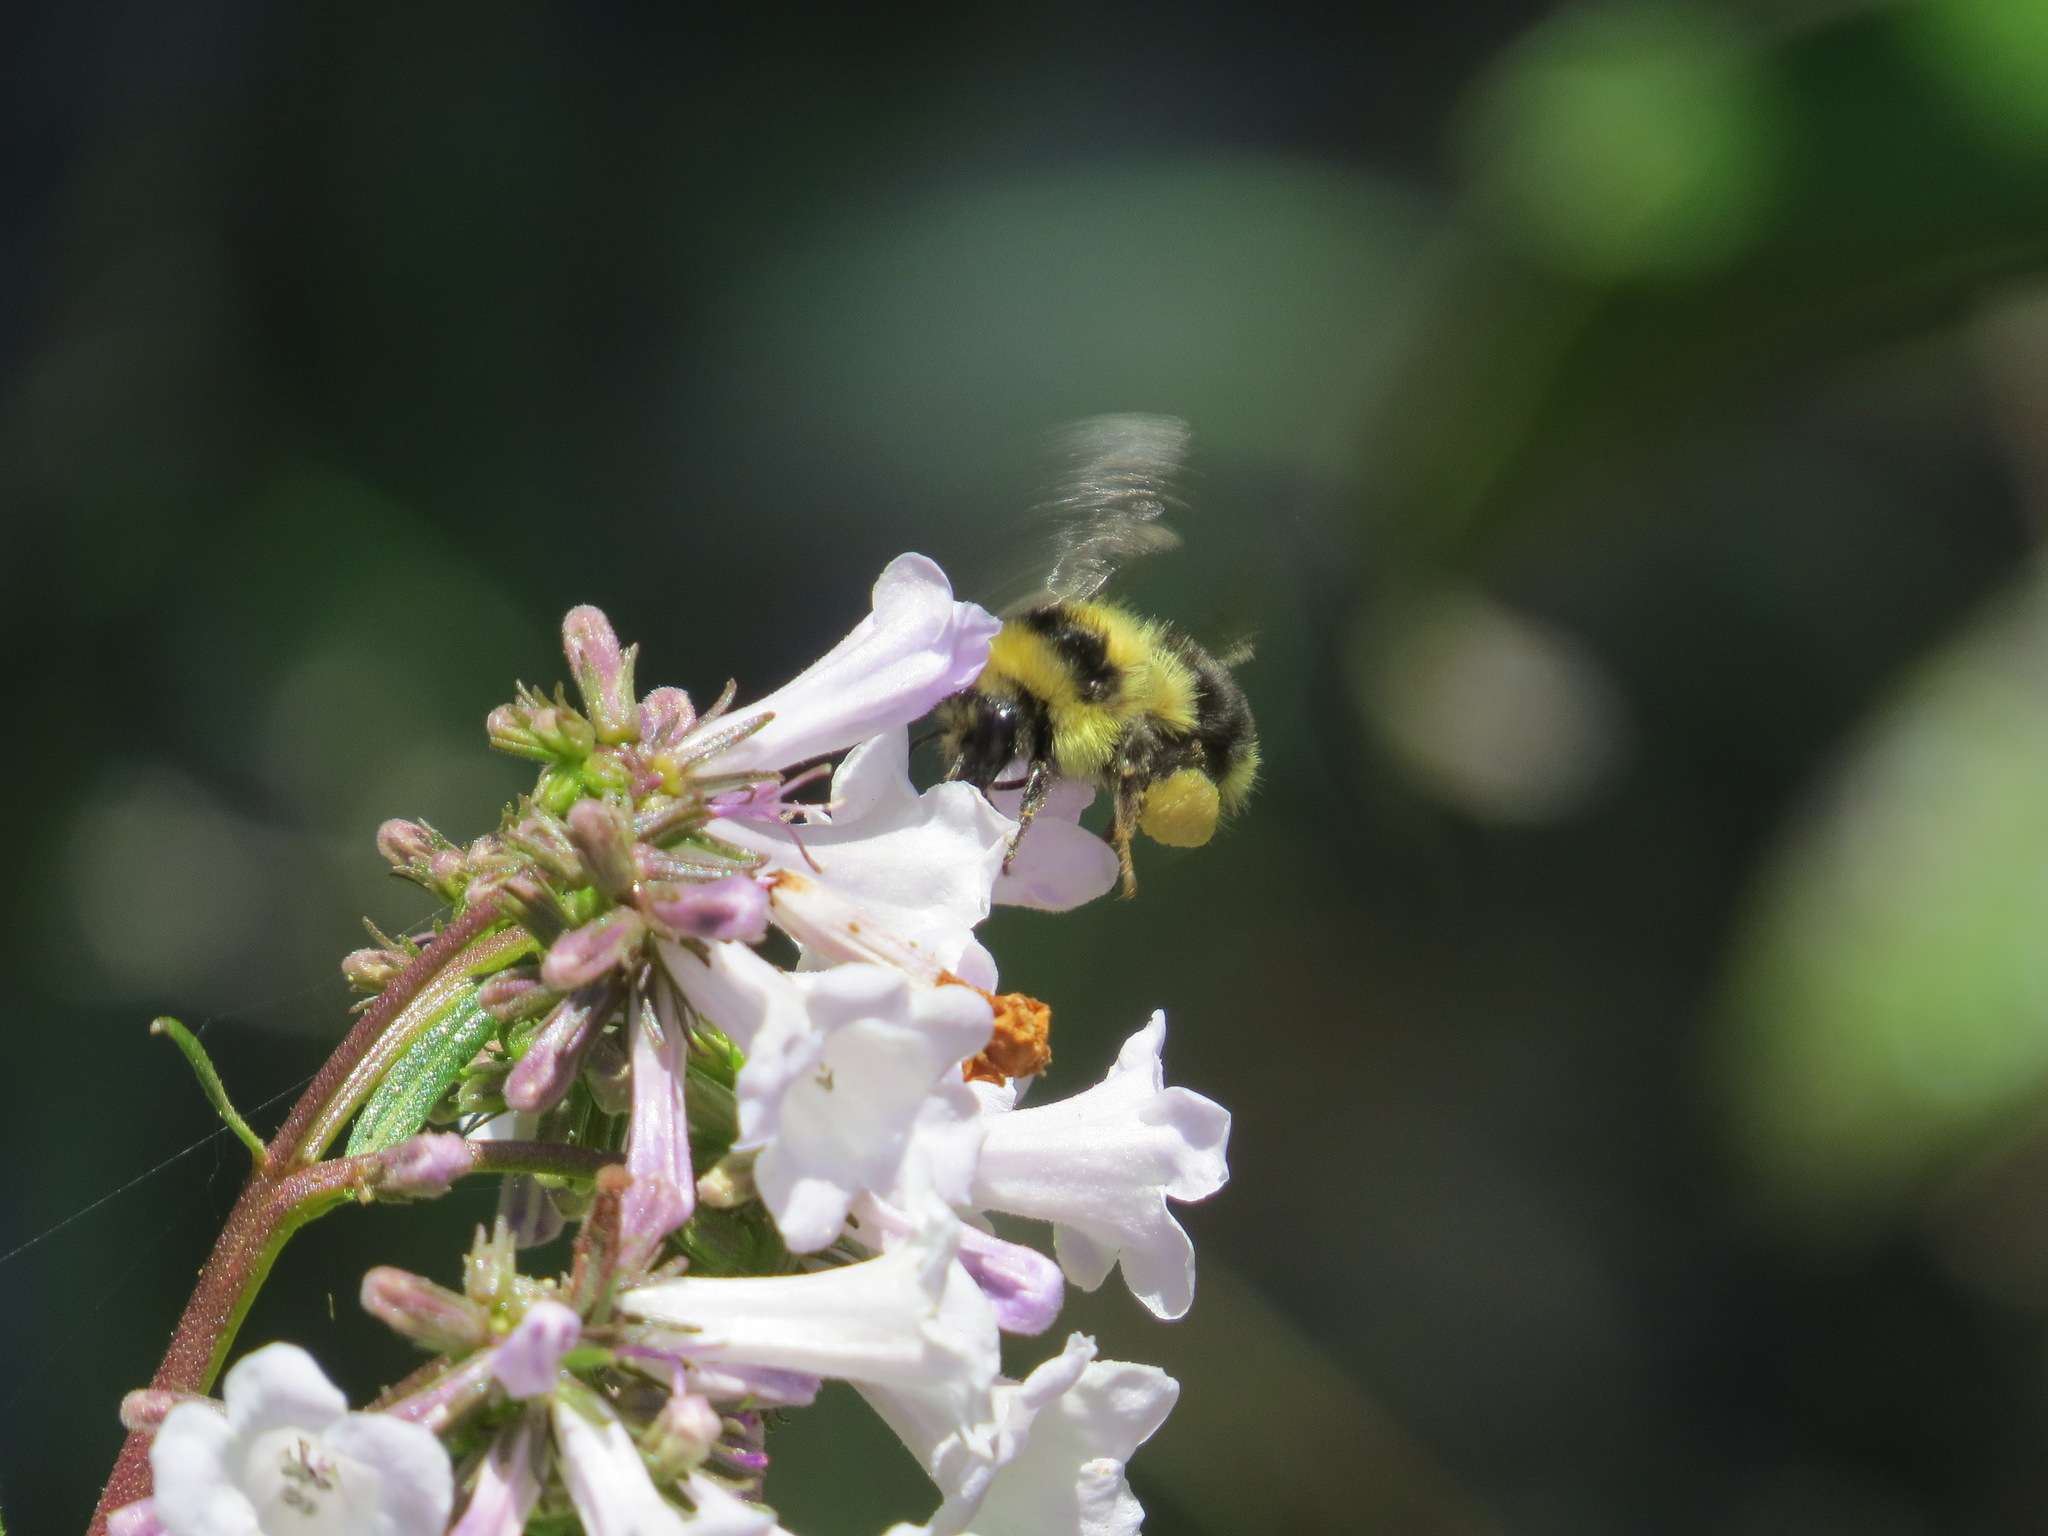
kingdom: Animalia
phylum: Arthropoda
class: Insecta
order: Hymenoptera
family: Apidae
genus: Bombus
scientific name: Bombus melanopygus
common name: Black tail bumble bee
